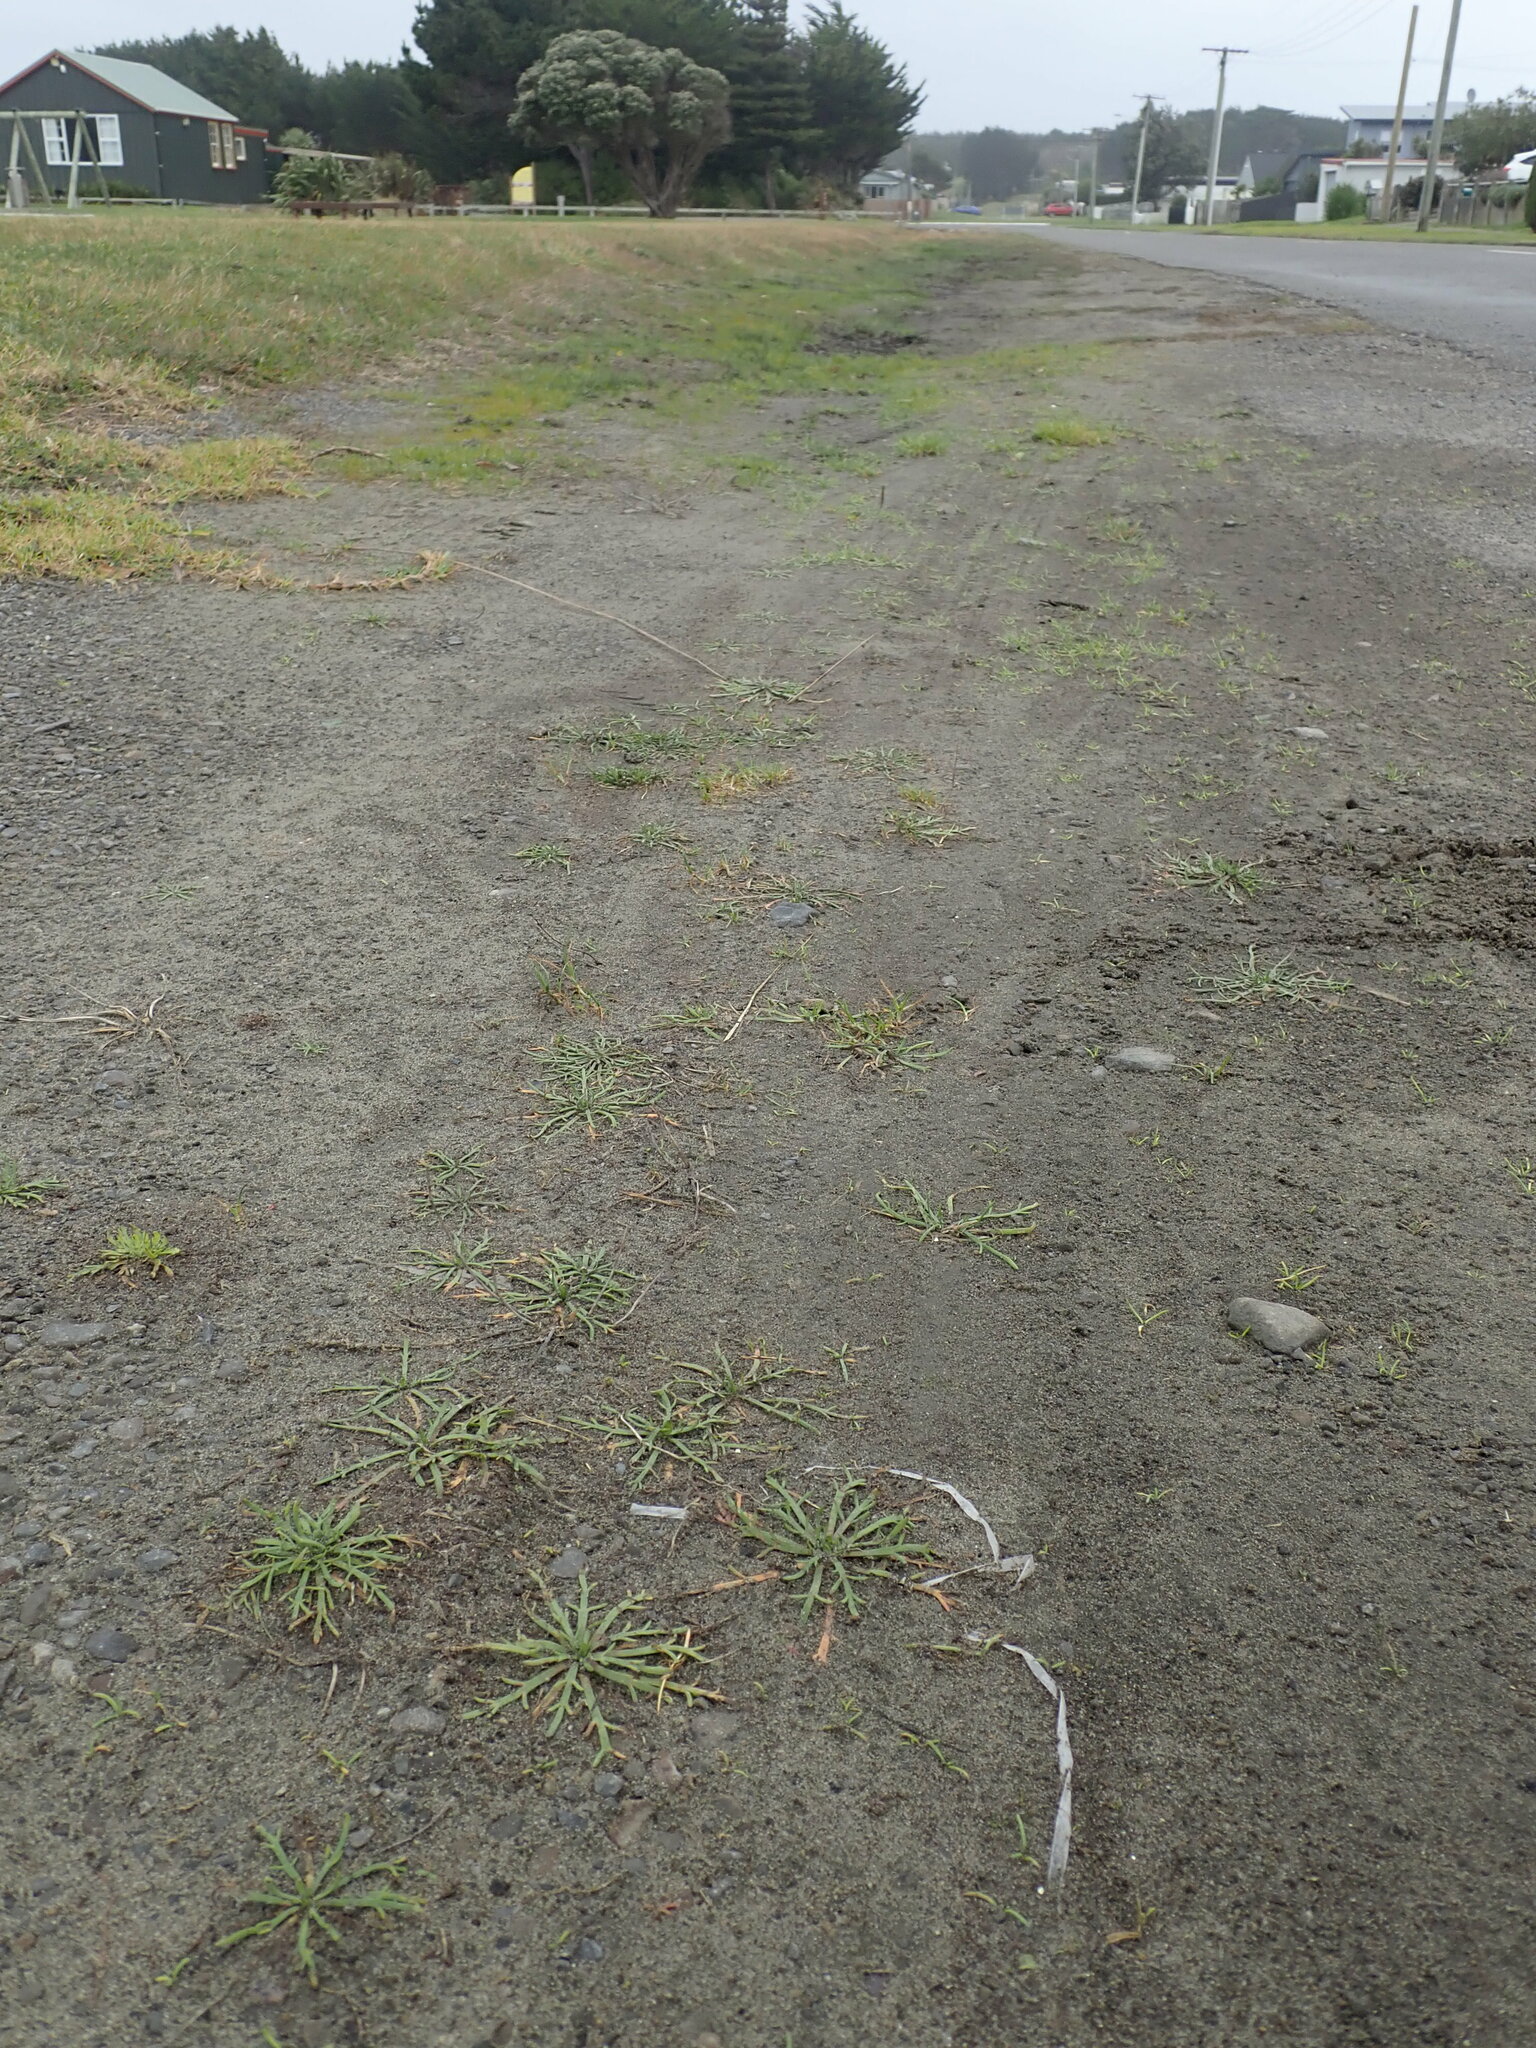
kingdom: Plantae
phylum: Tracheophyta
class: Magnoliopsida
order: Lamiales
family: Plantaginaceae
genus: Plantago
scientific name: Plantago coronopus
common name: Buck's-horn plantain
